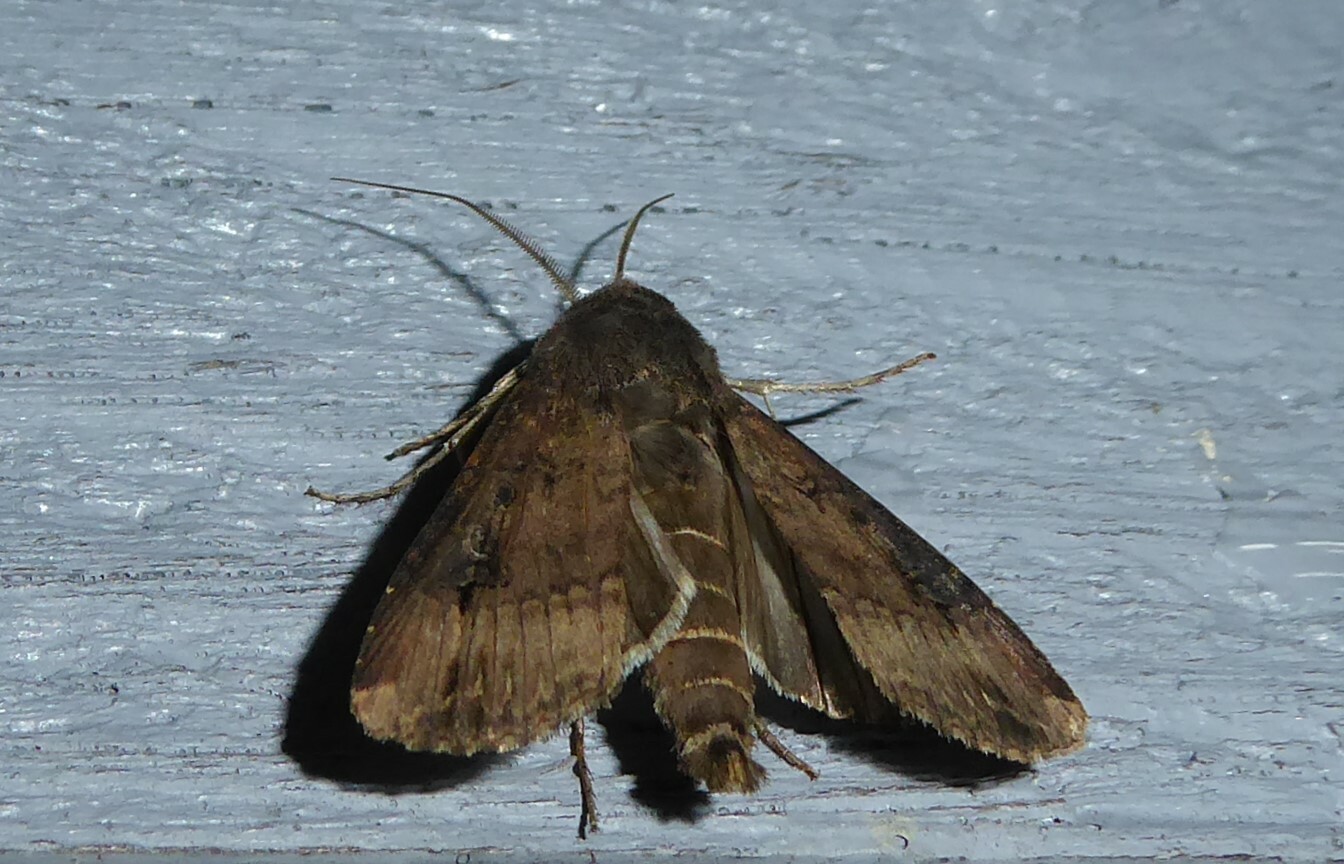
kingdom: Animalia
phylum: Arthropoda
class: Insecta
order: Lepidoptera
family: Noctuidae
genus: Agrotis
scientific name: Agrotis ipsilon
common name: Dark sword-grass
